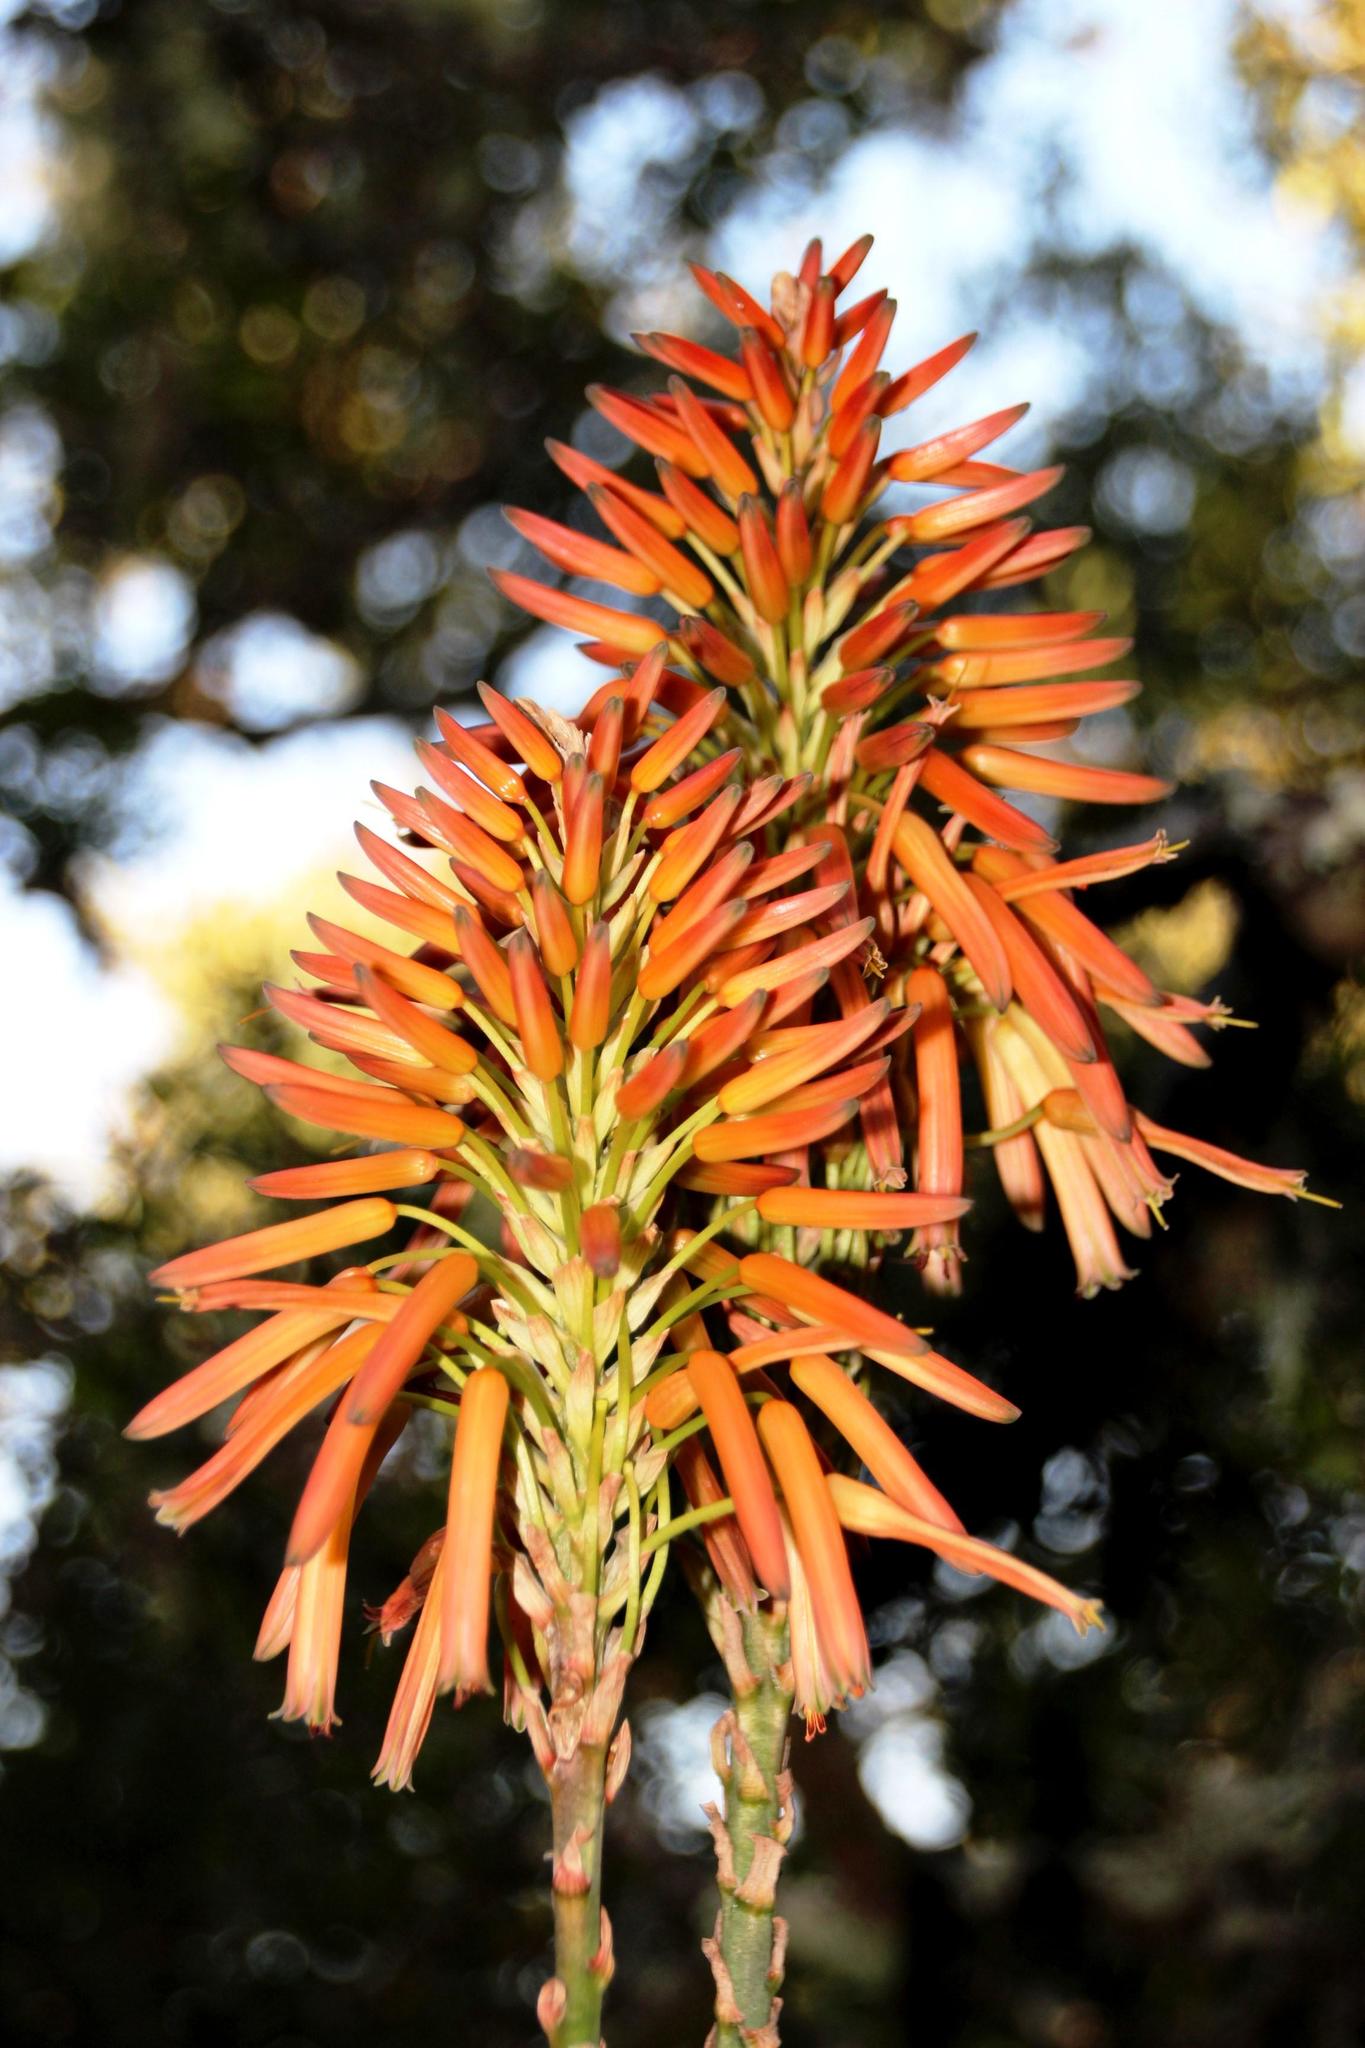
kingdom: Plantae
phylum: Tracheophyta
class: Liliopsida
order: Asparagales
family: Asphodelaceae
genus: Aloe
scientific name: Aloe pluridens
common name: French aloe
